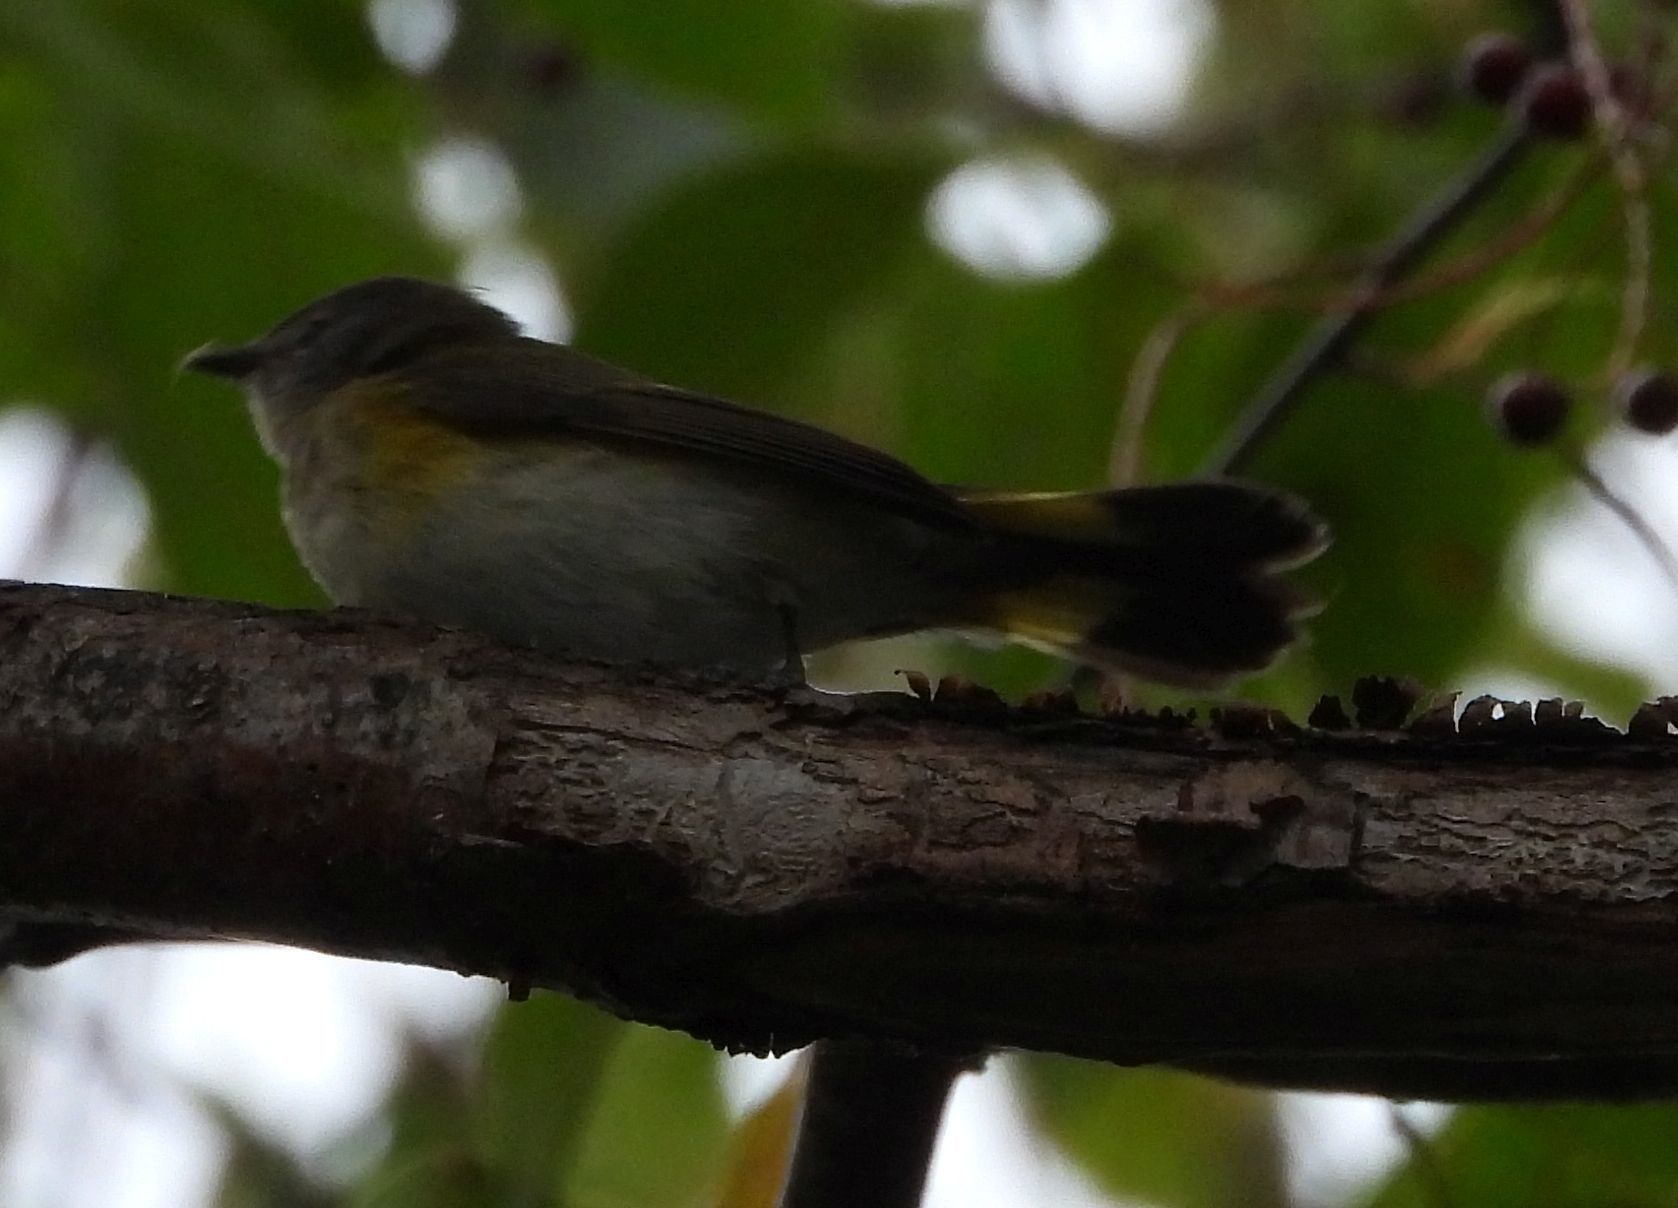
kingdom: Animalia
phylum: Chordata
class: Aves
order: Passeriformes
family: Parulidae
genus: Setophaga
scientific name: Setophaga ruticilla
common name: American redstart
